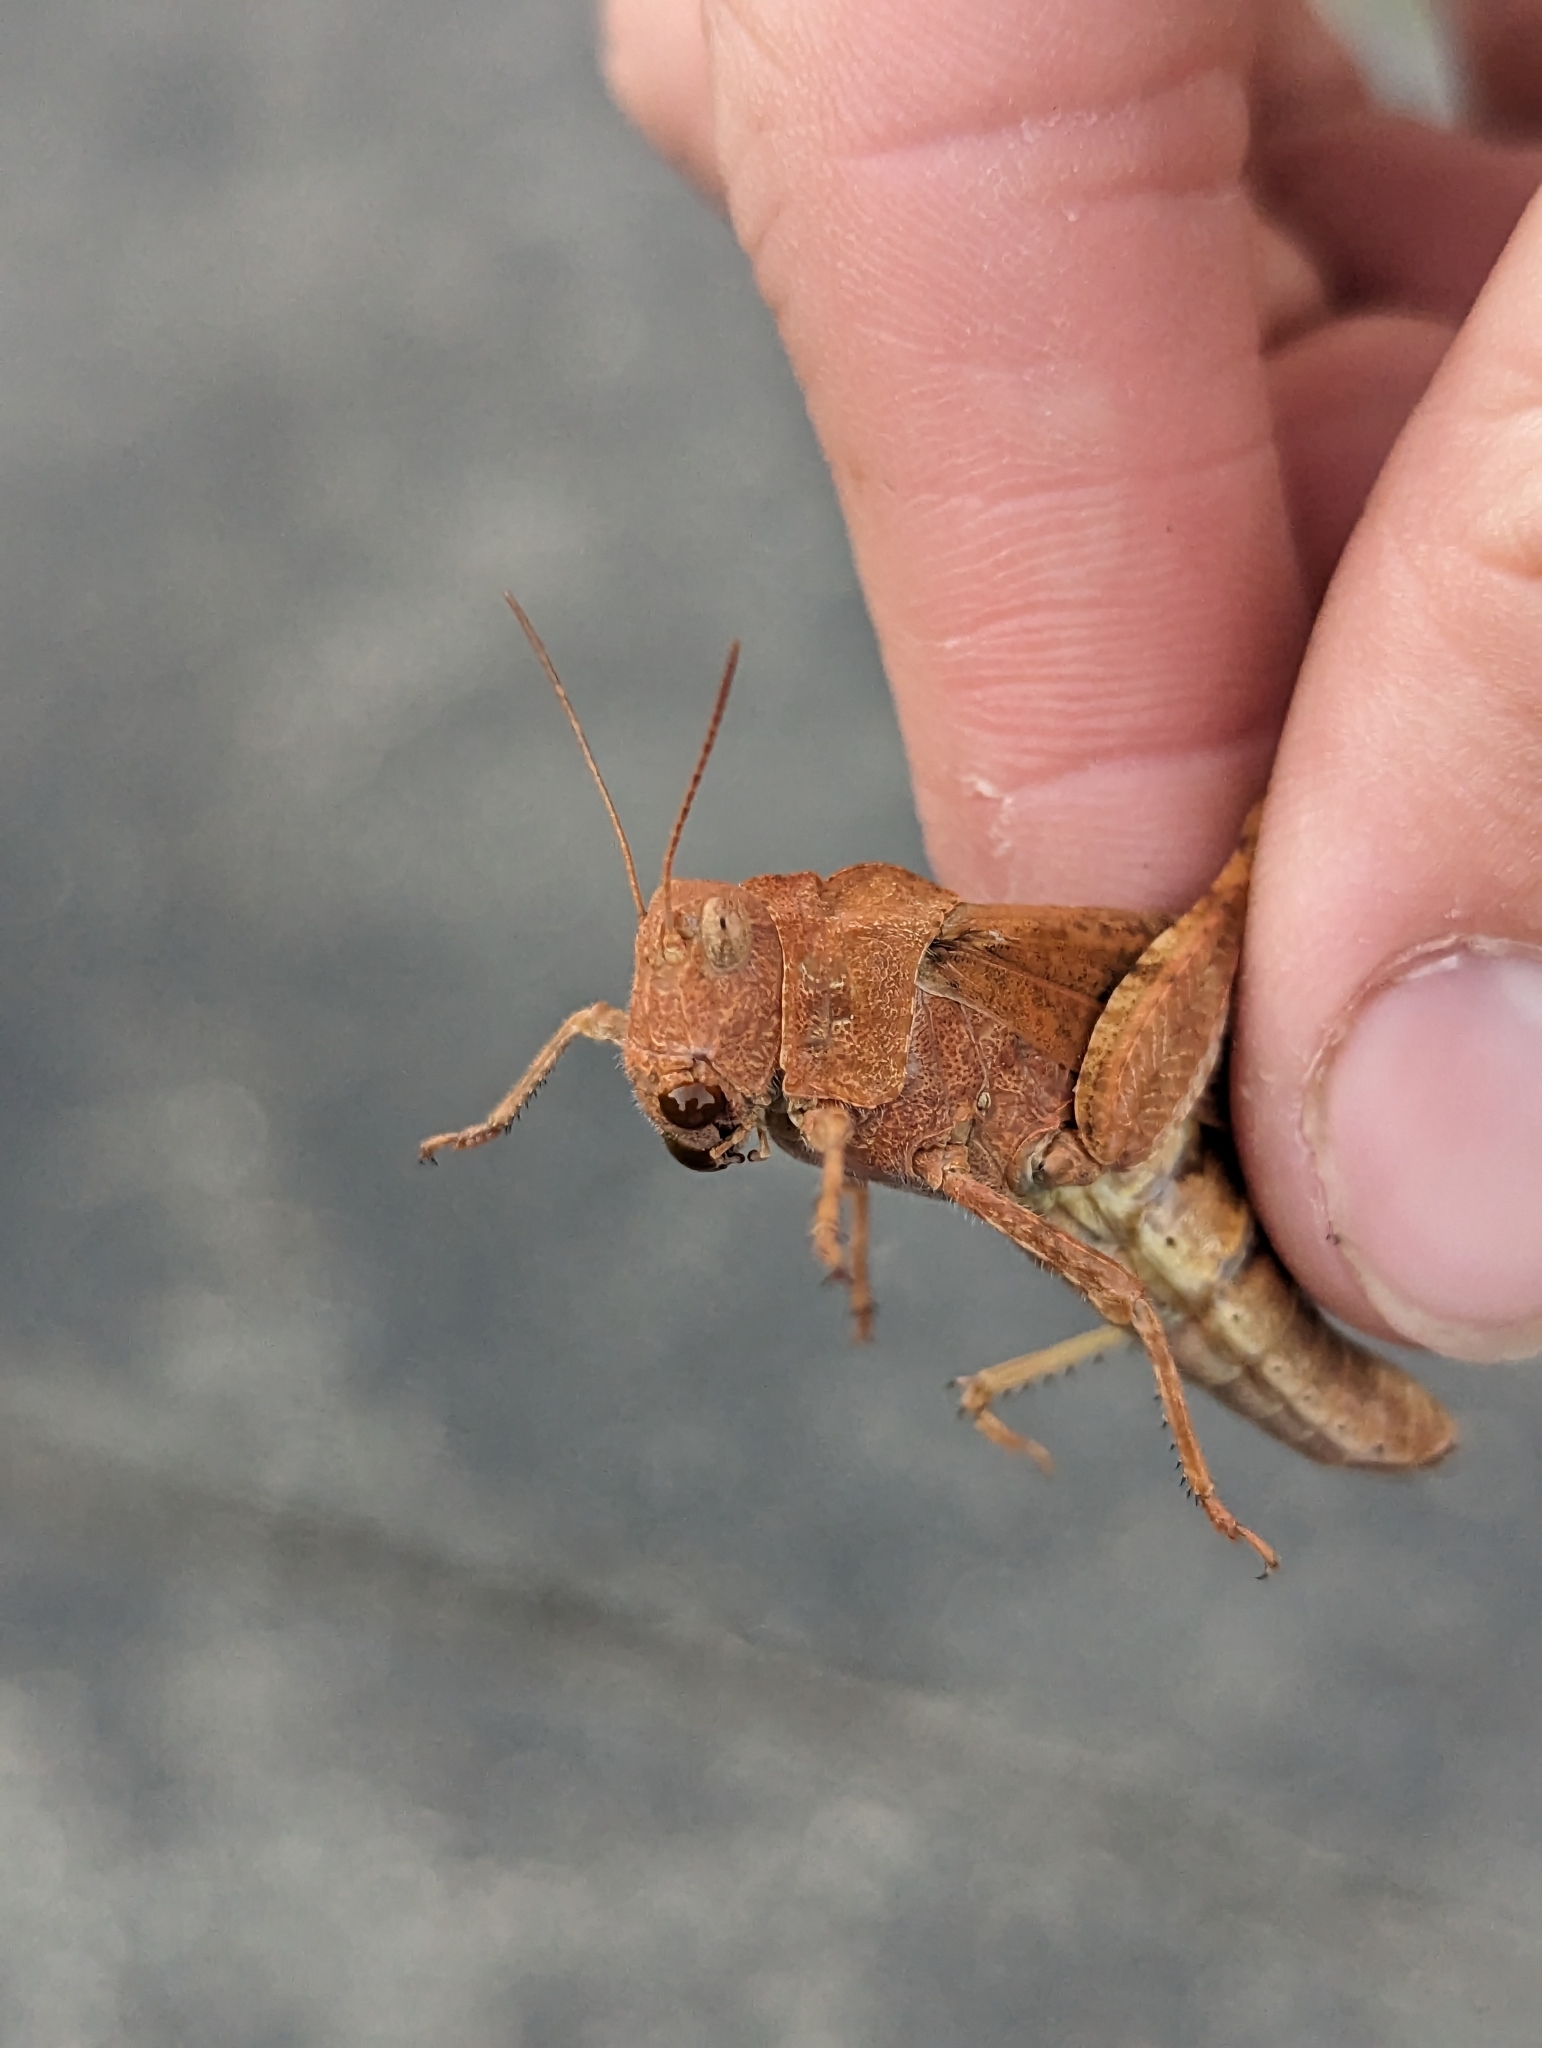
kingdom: Animalia
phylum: Arthropoda
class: Insecta
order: Orthoptera
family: Acrididae
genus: Dissosteira
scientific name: Dissosteira carolina
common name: Carolina grasshopper
